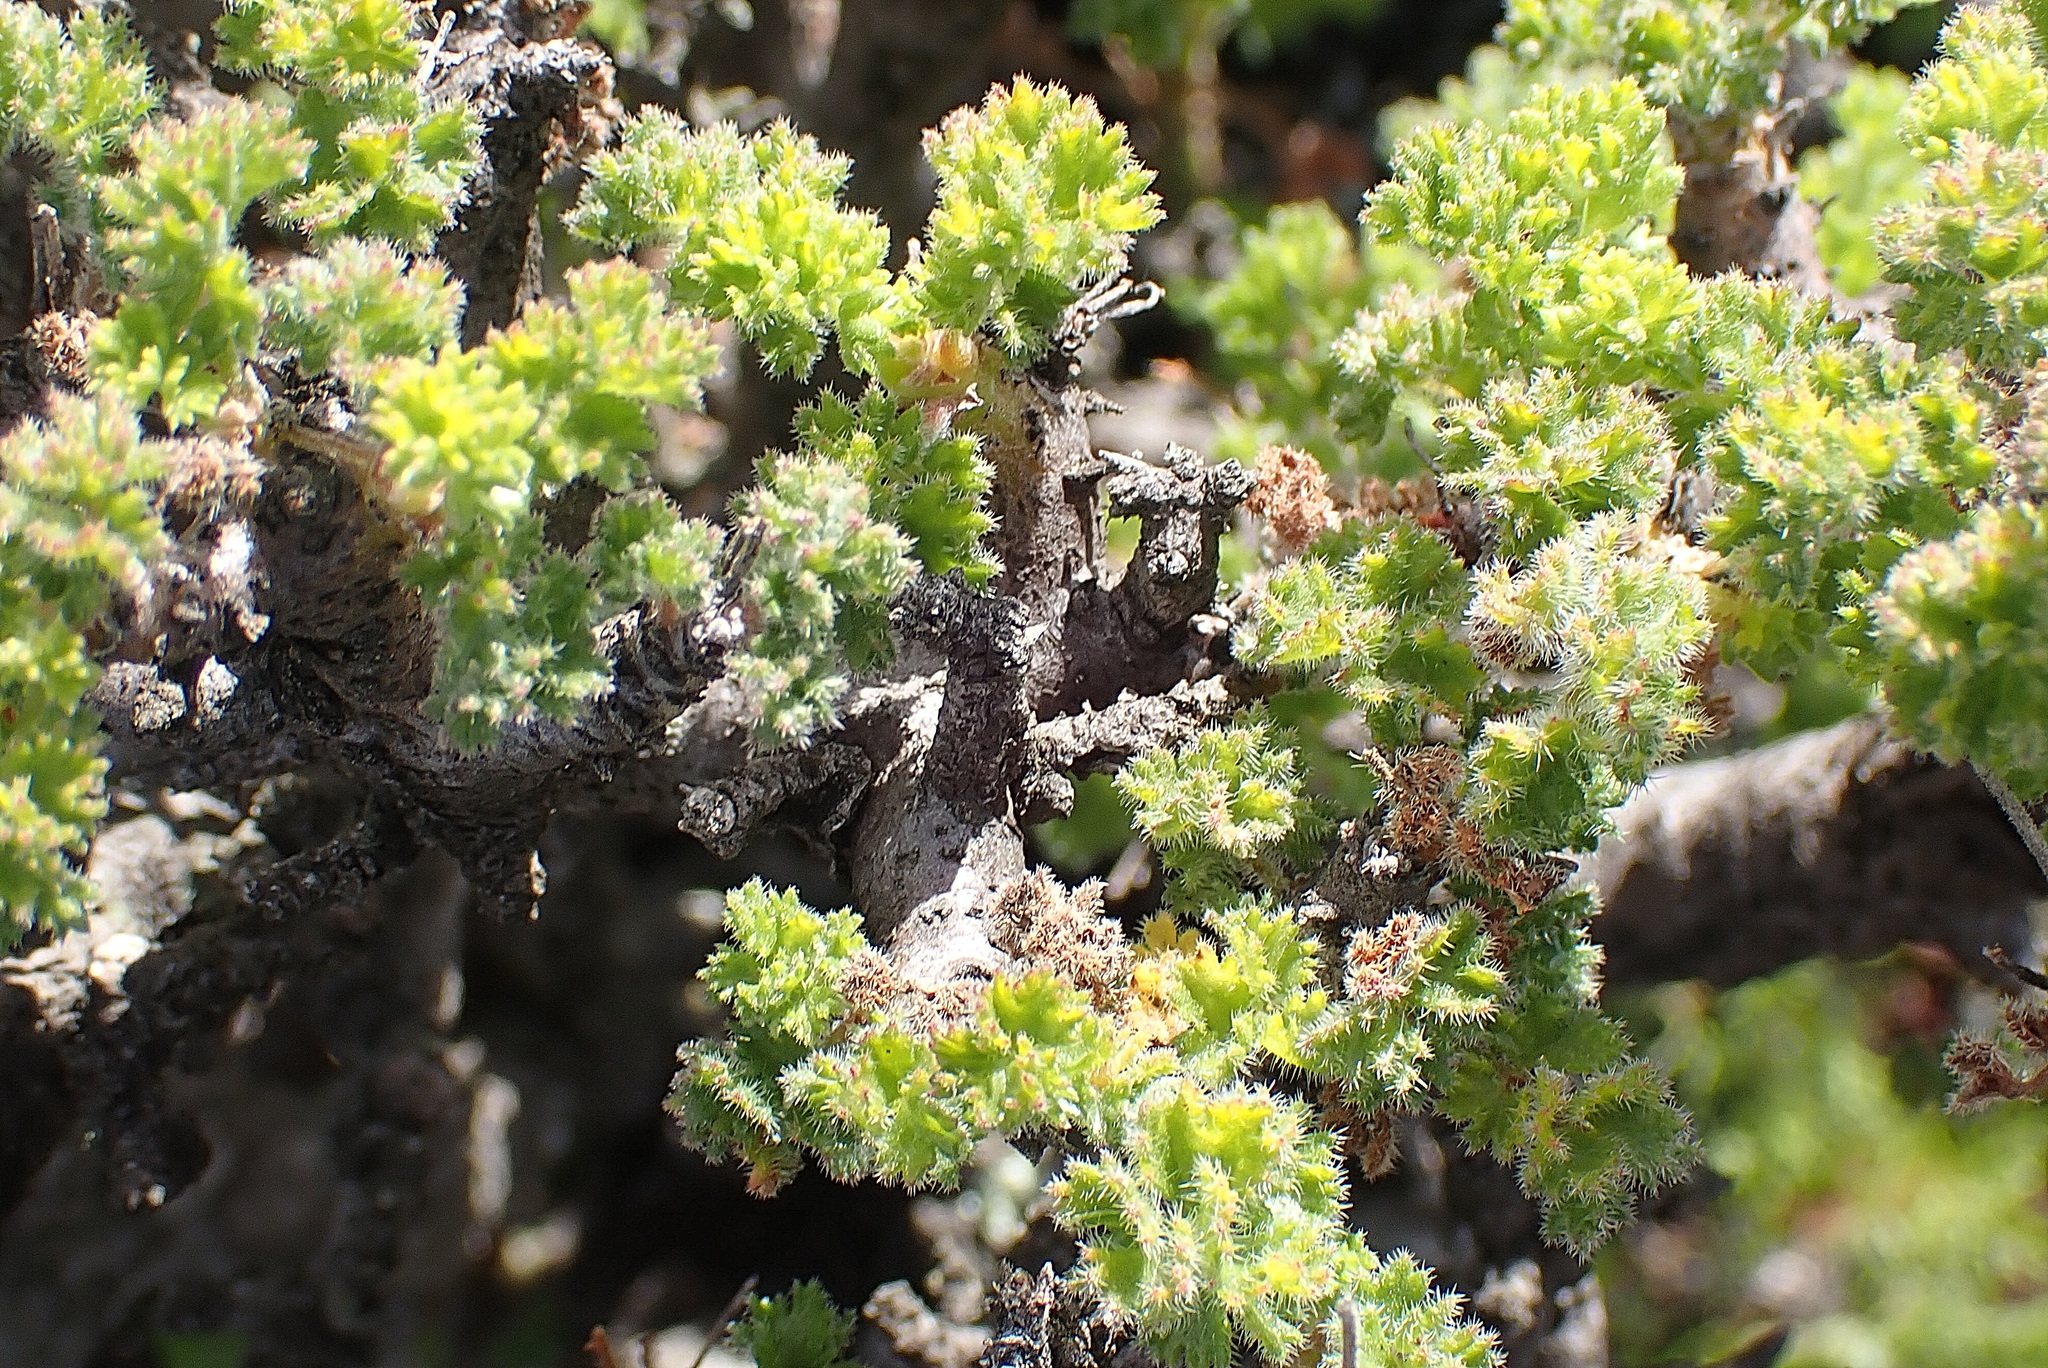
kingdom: Plantae
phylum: Tracheophyta
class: Magnoliopsida
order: Geraniales
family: Geraniaceae
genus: Pelargonium
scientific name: Pelargonium alternans
